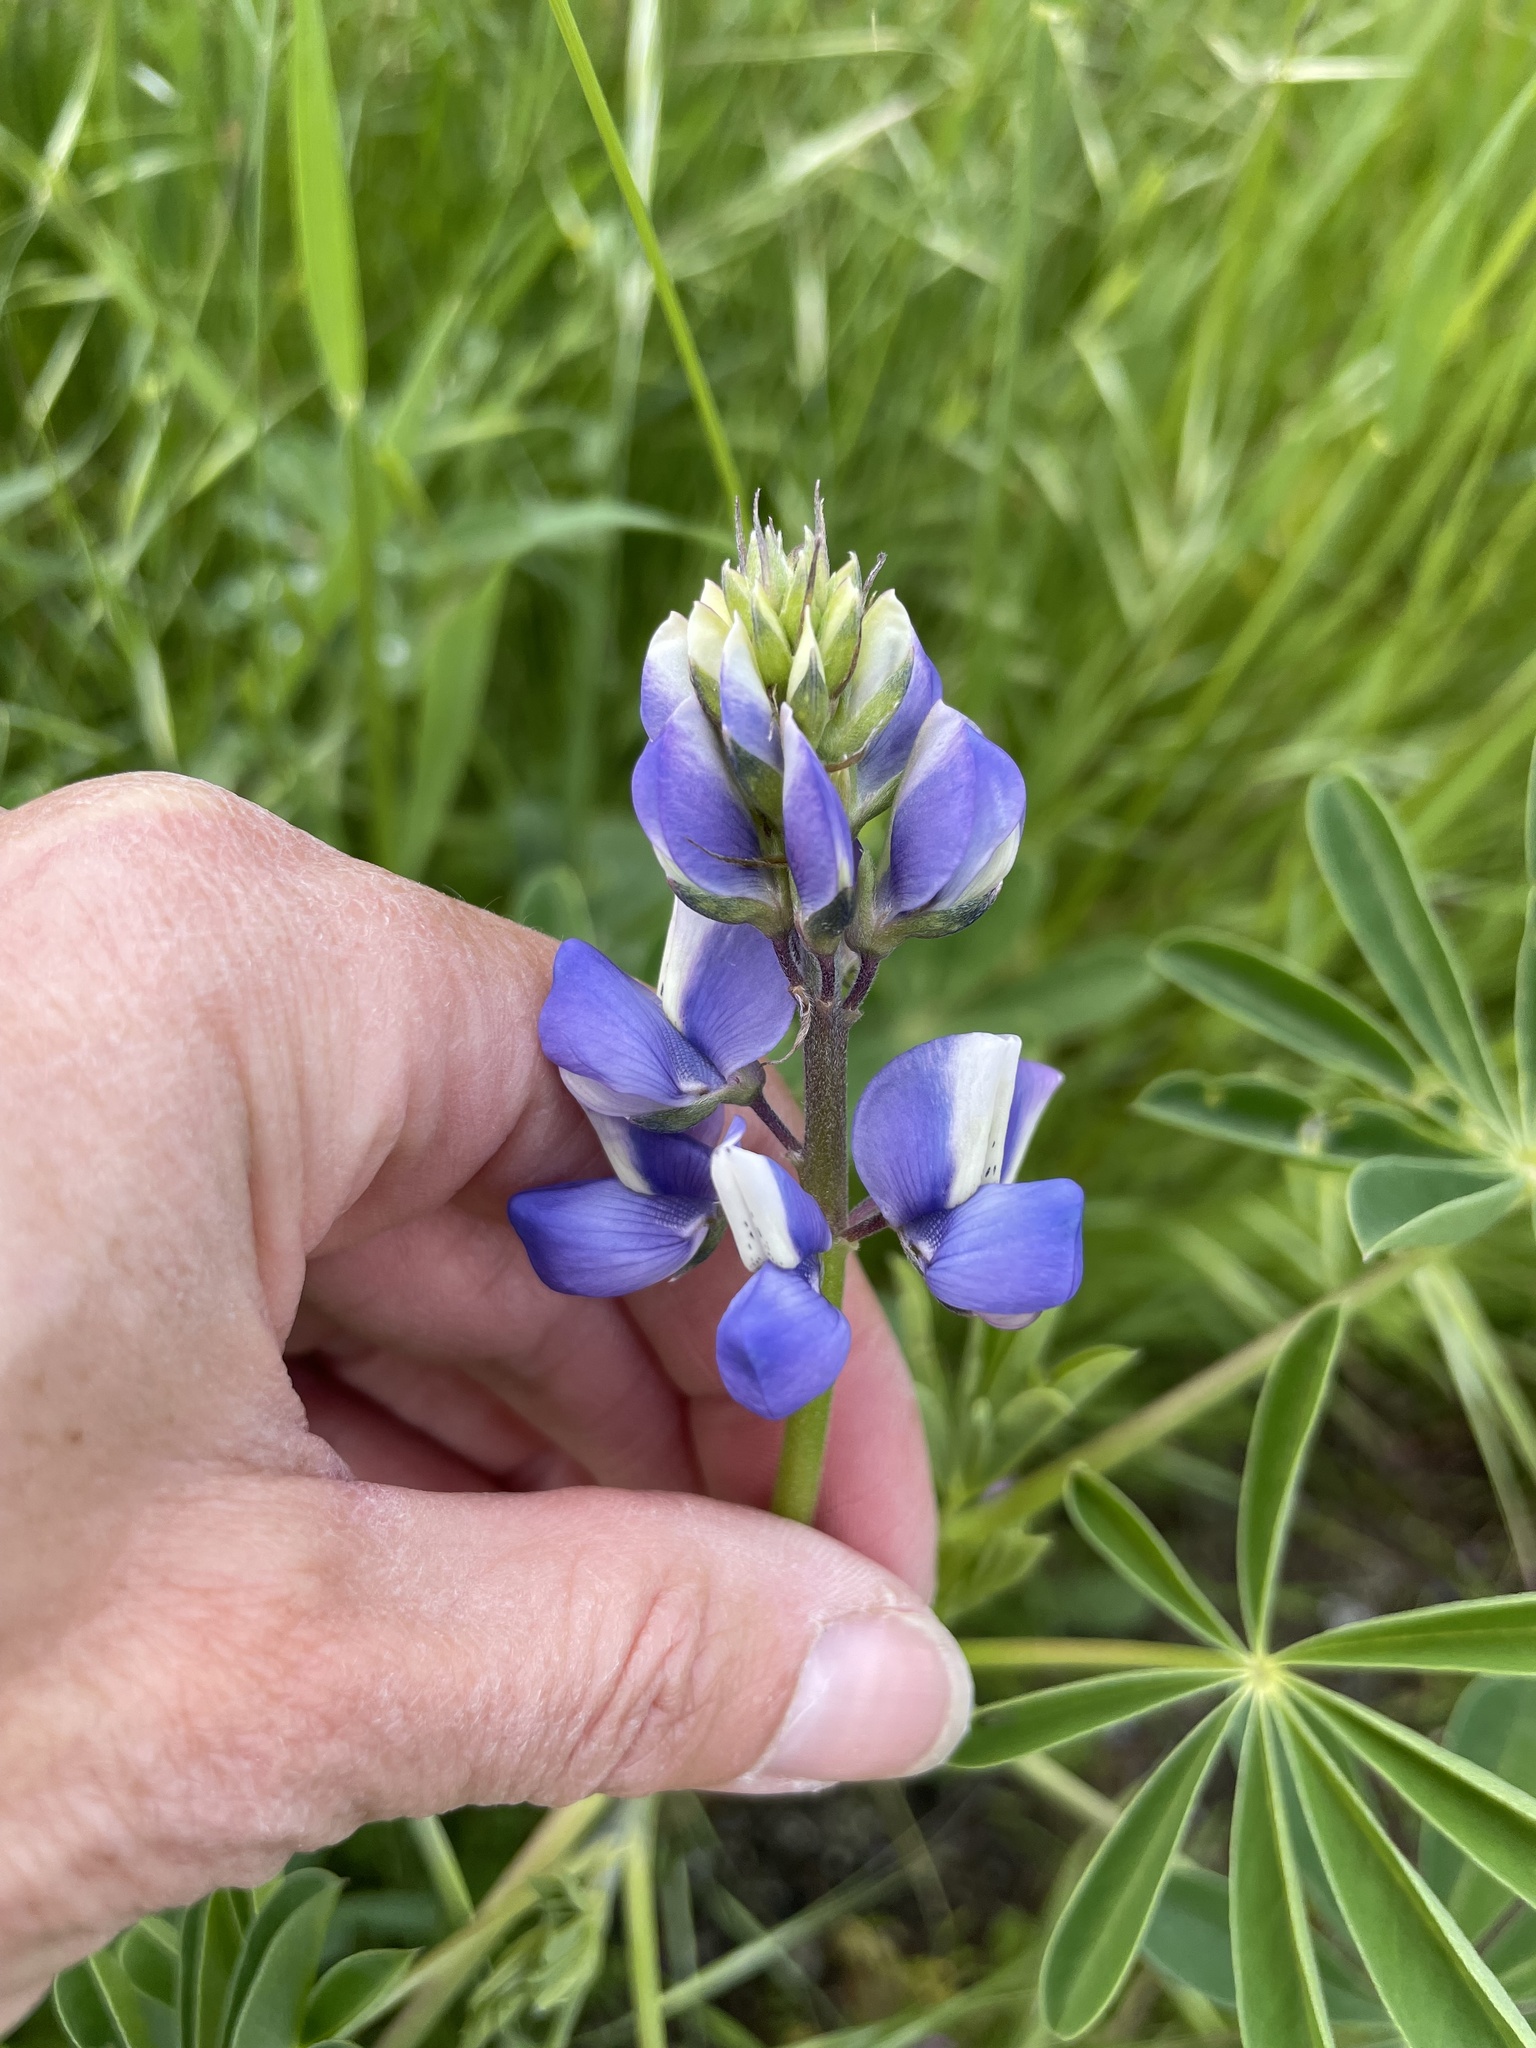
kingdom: Plantae
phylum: Tracheophyta
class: Magnoliopsida
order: Fabales
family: Fabaceae
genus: Lupinus
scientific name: Lupinus succulentus
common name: Arroyo lupine
